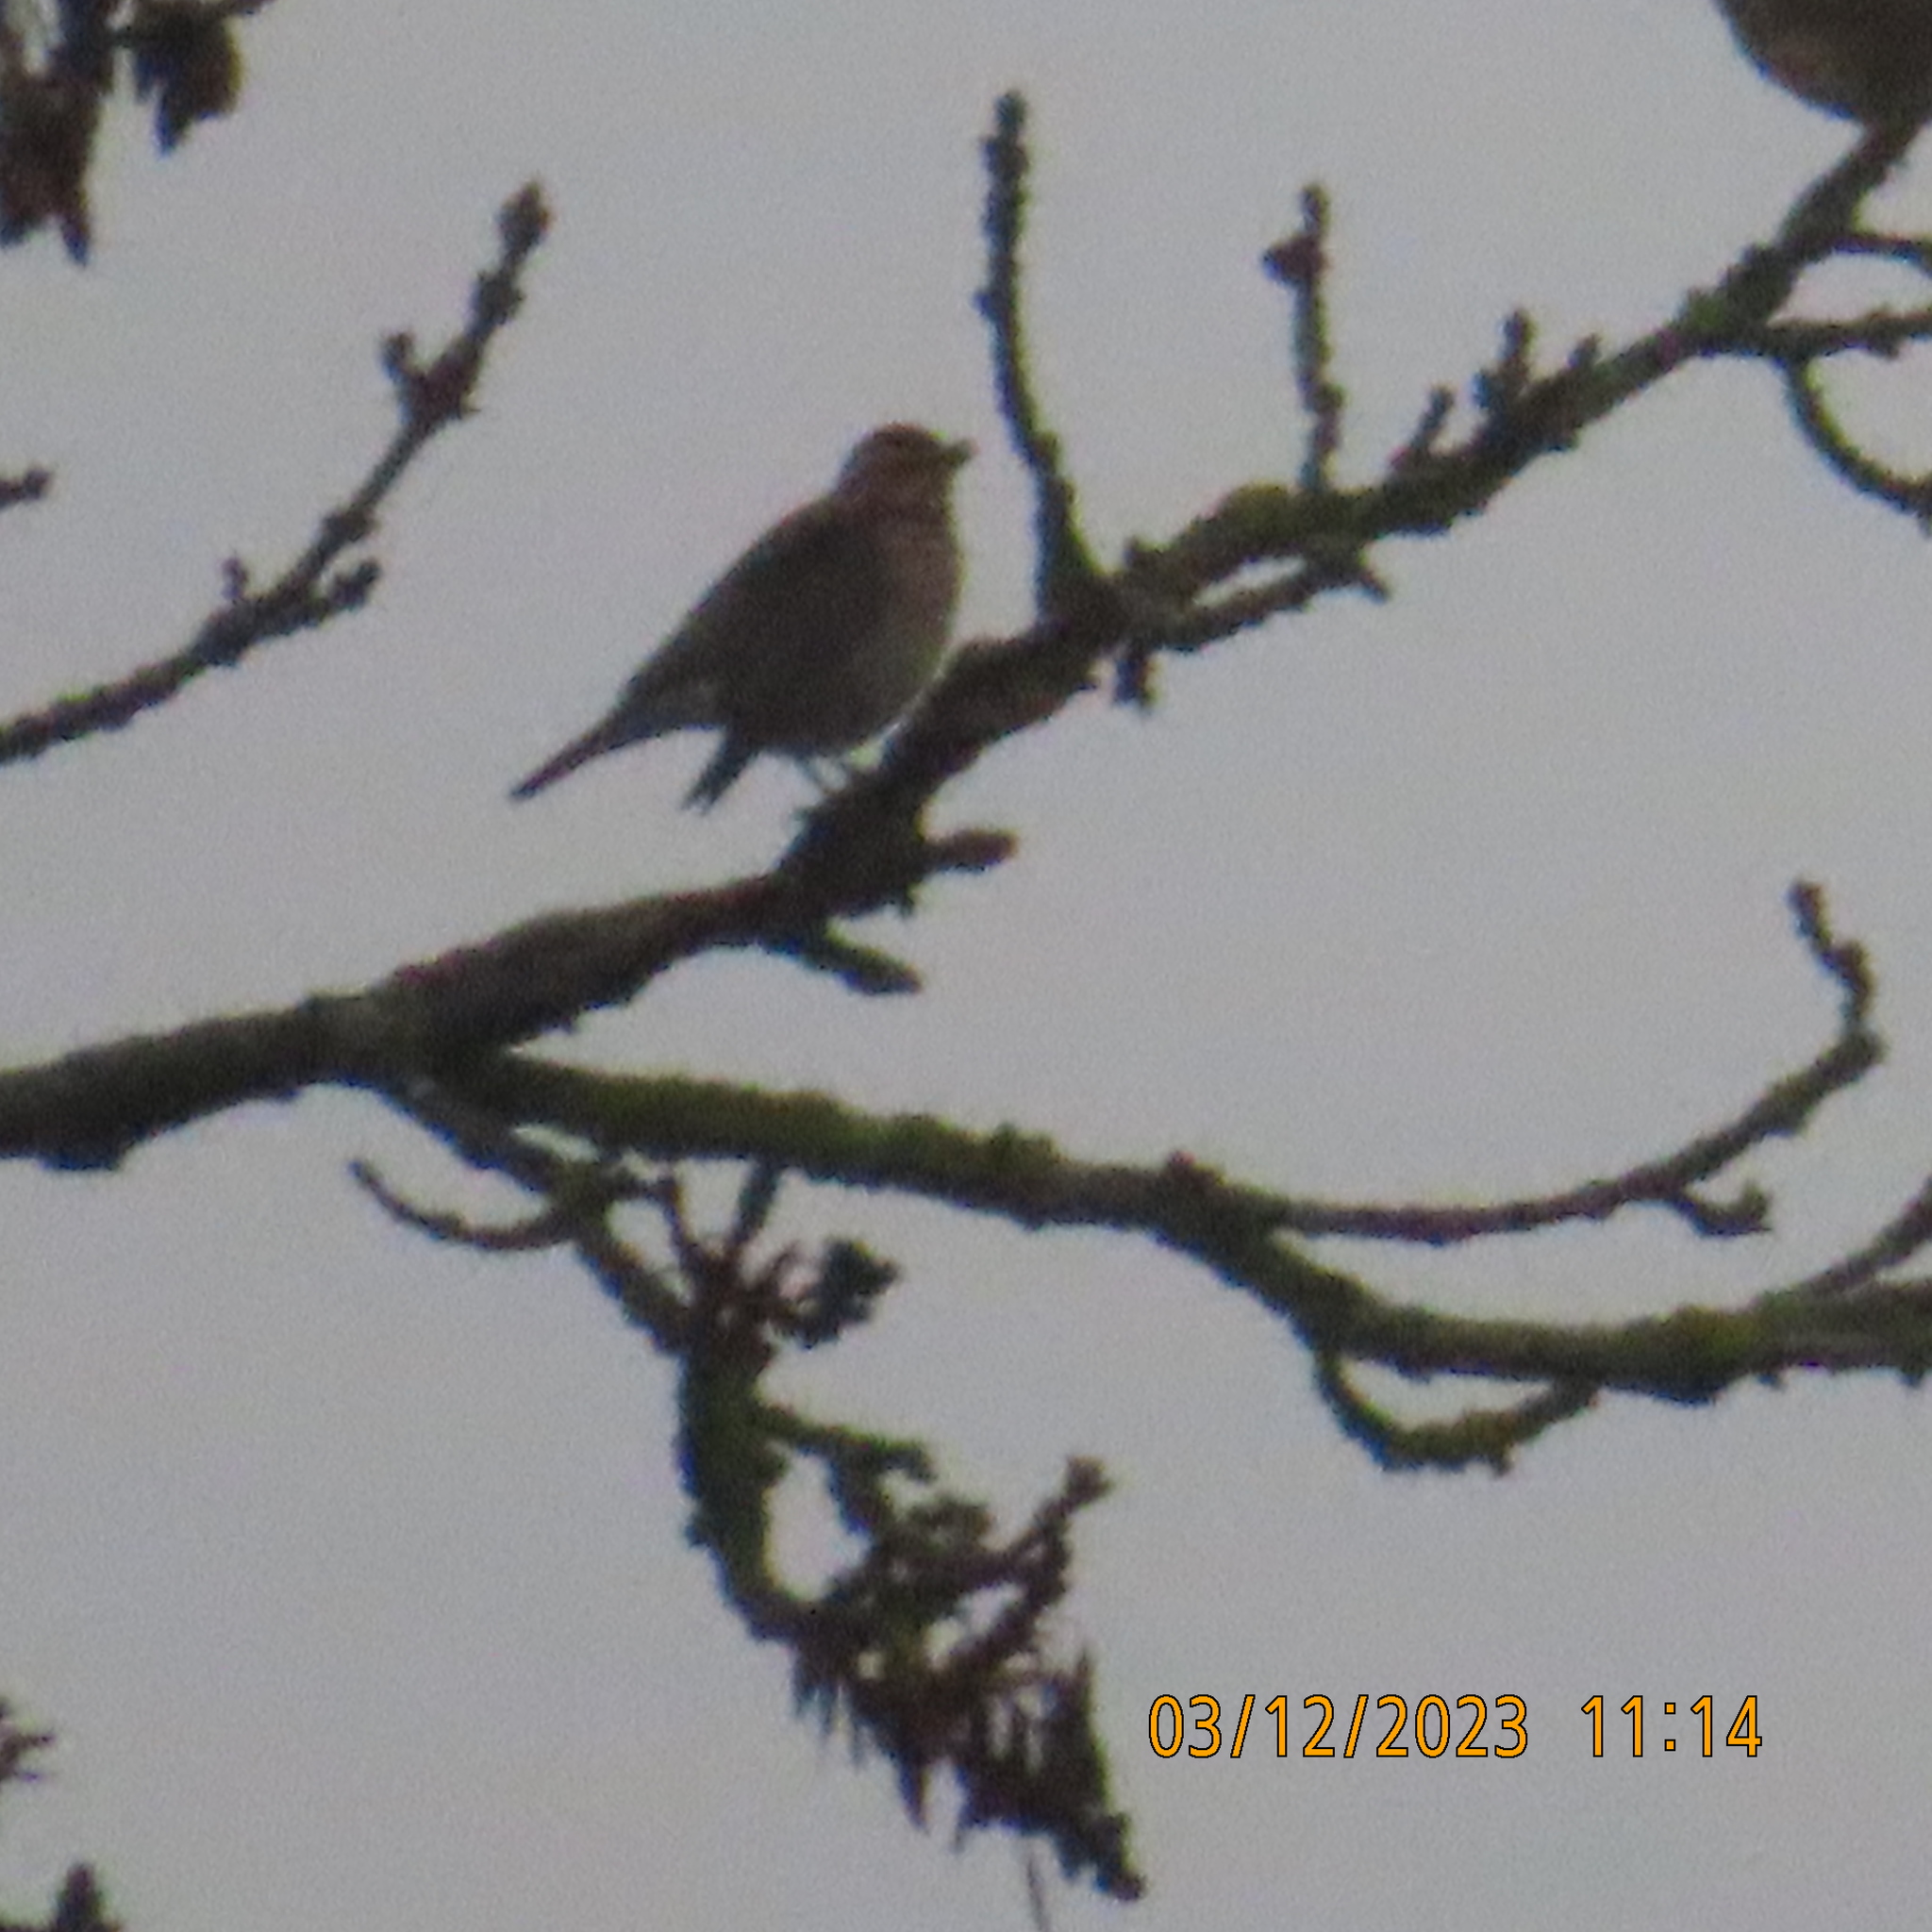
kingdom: Animalia
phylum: Chordata
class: Aves
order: Passeriformes
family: Turdidae
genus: Turdus
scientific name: Turdus merula
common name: Common blackbird
